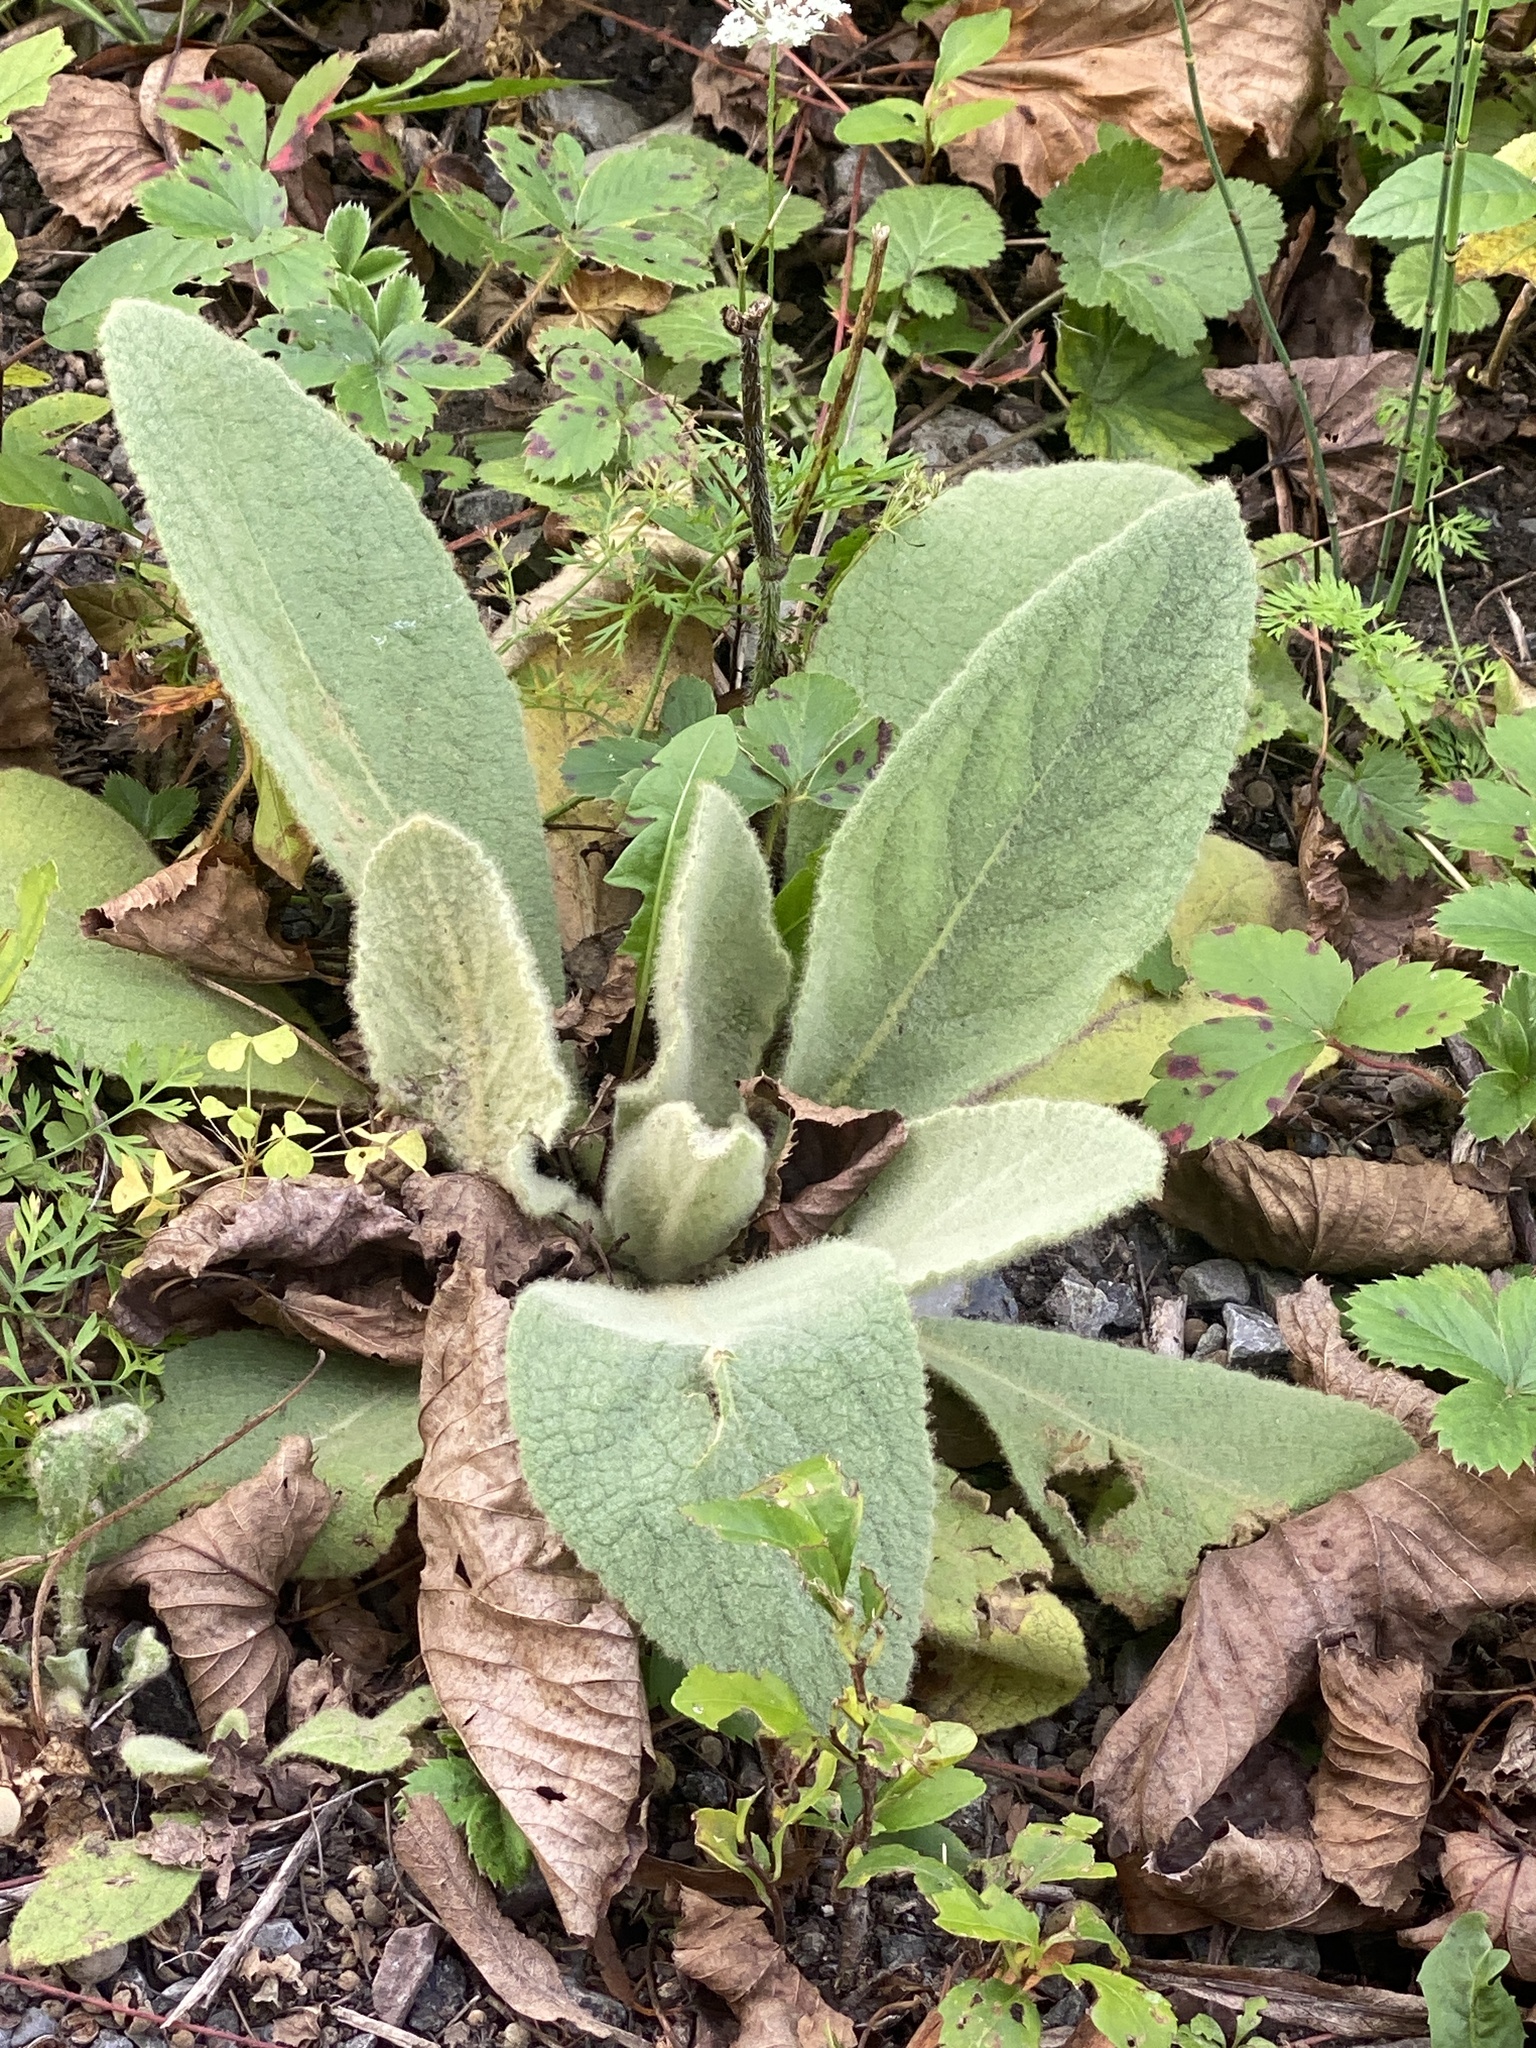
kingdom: Plantae
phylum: Tracheophyta
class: Magnoliopsida
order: Lamiales
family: Scrophulariaceae
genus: Verbascum
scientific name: Verbascum thapsus
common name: Common mullein
